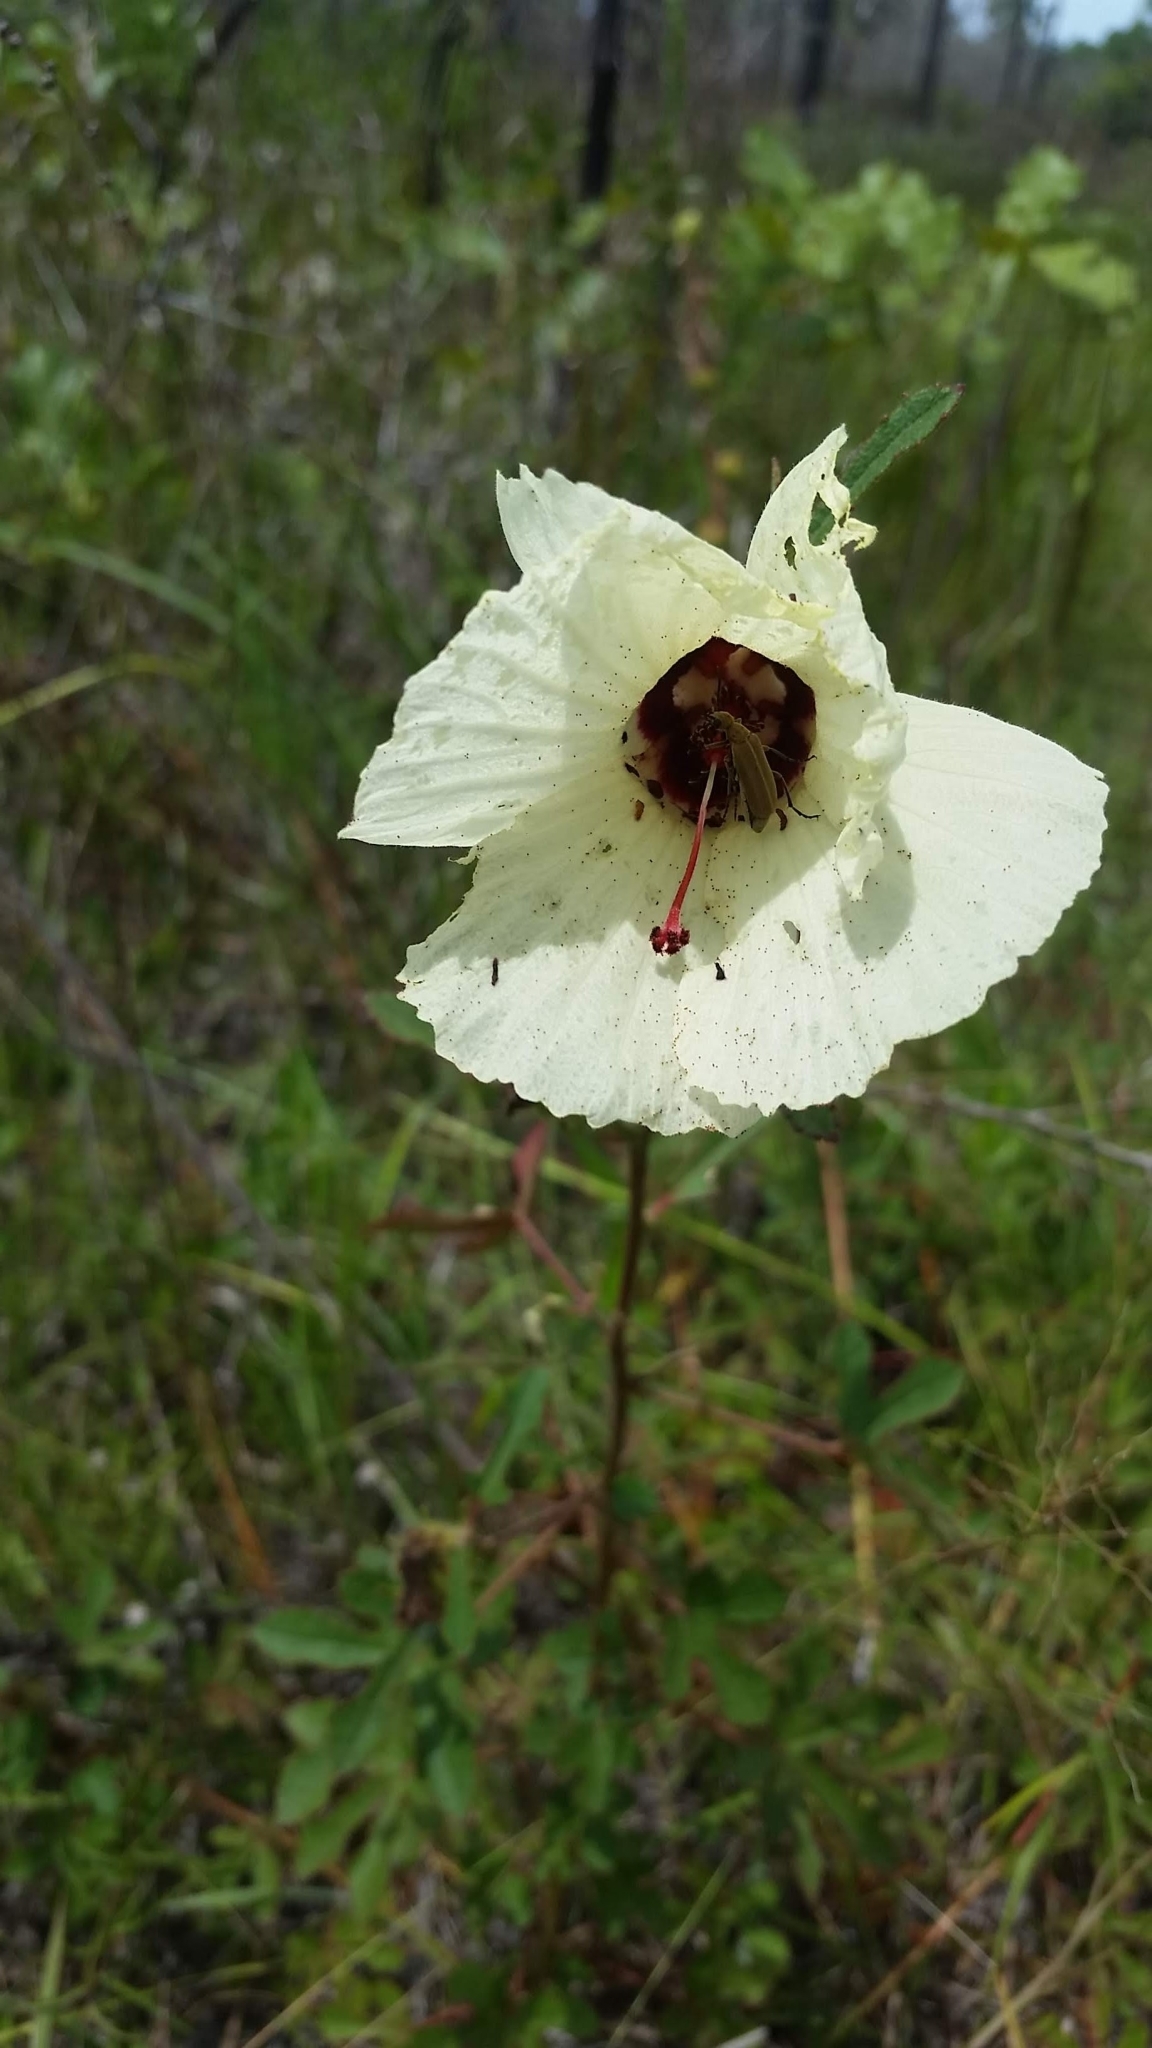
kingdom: Plantae
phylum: Tracheophyta
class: Magnoliopsida
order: Malvales
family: Malvaceae
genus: Hibiscus
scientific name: Hibiscus aculeatus
